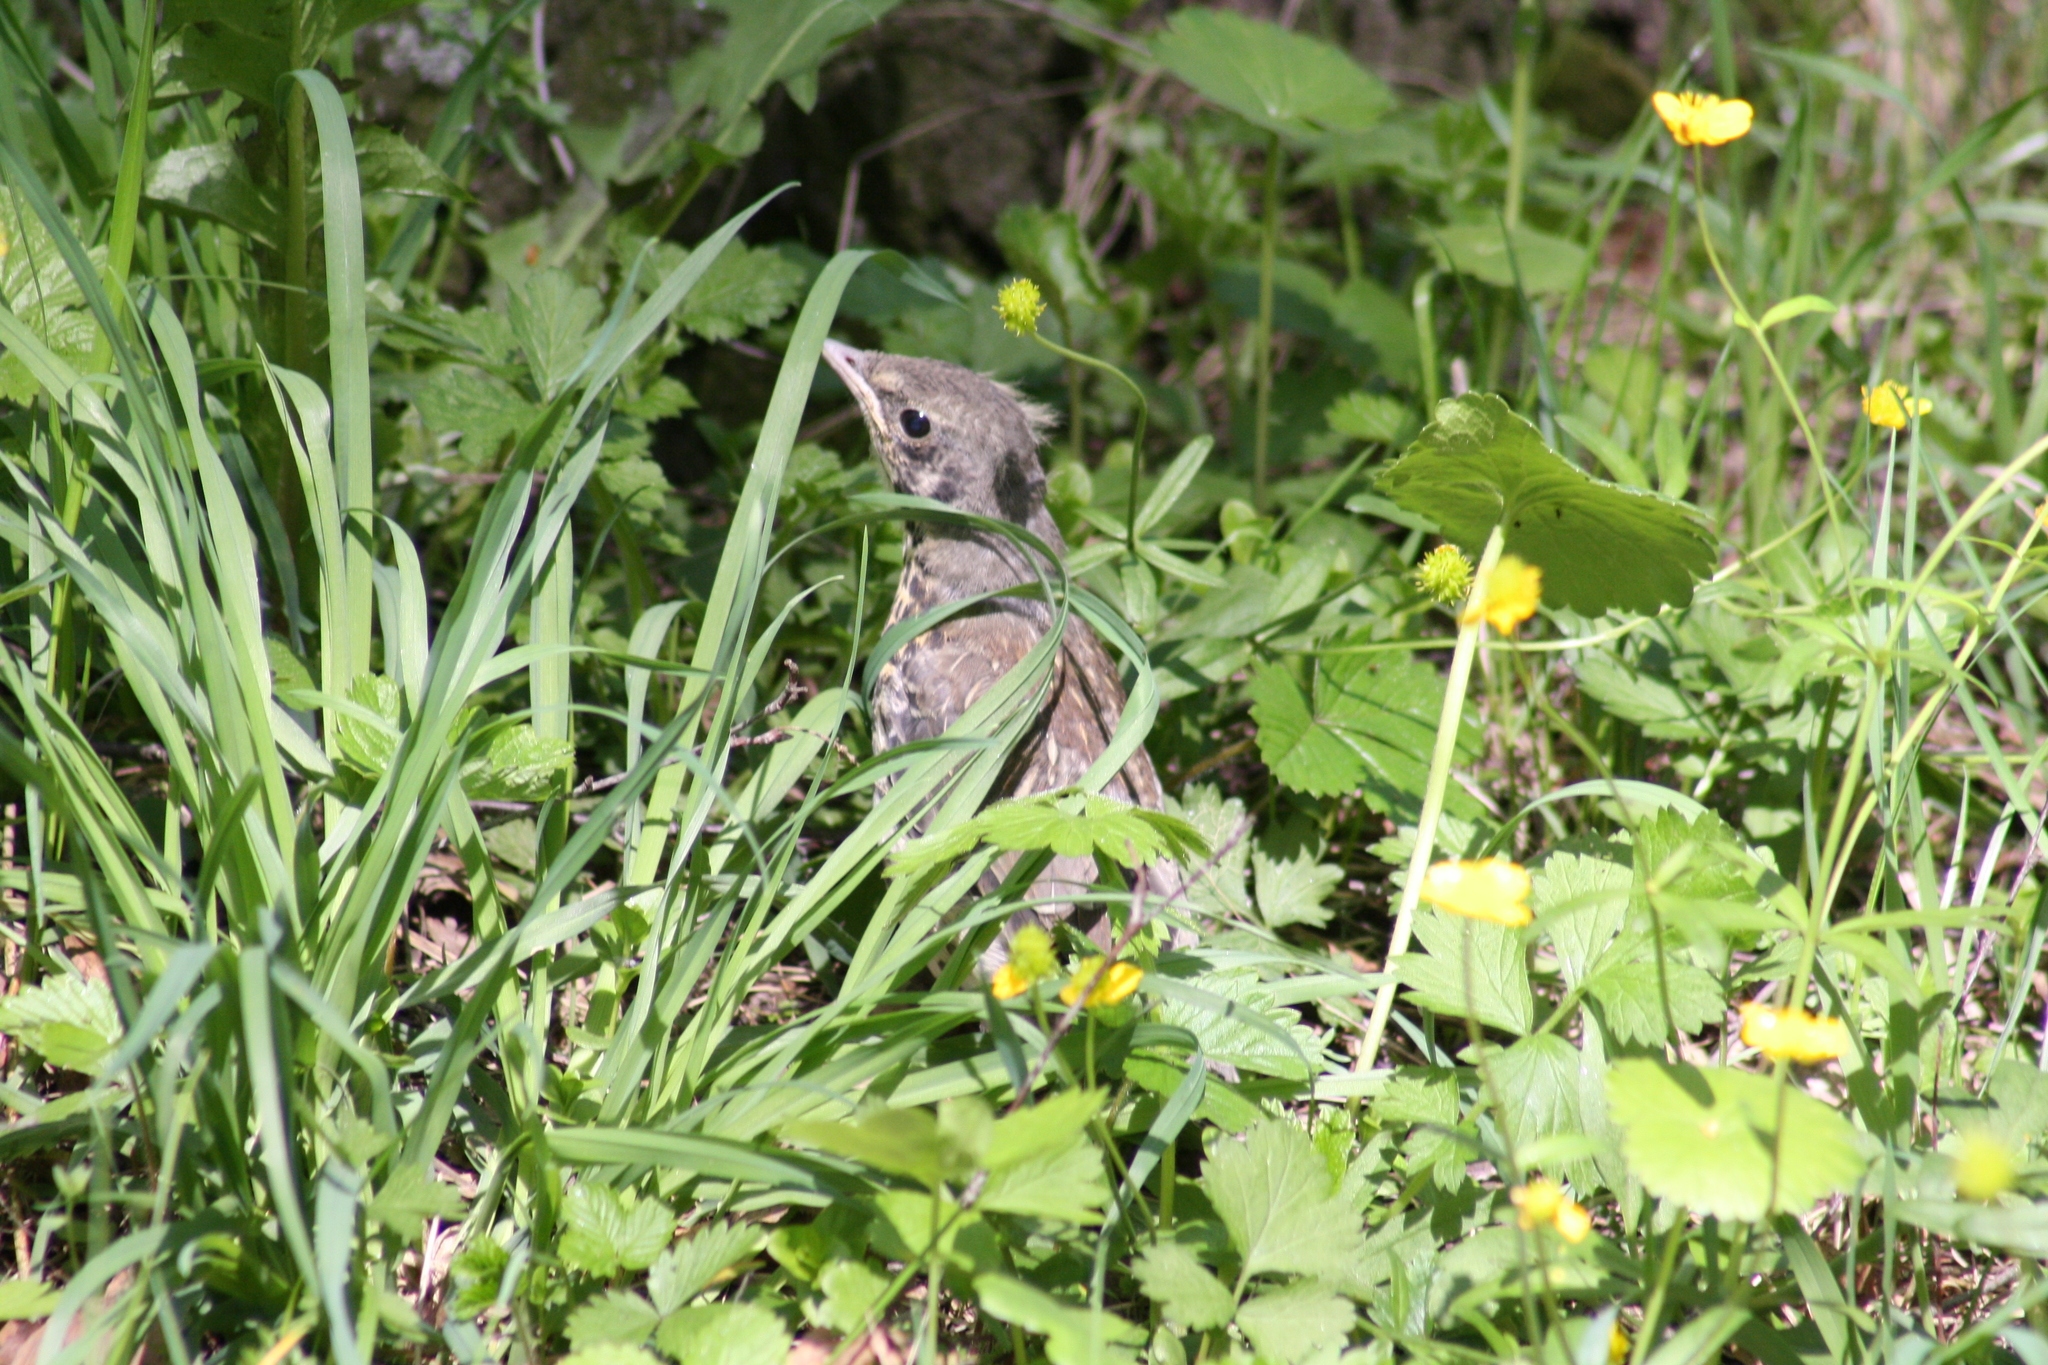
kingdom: Animalia
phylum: Chordata
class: Aves
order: Passeriformes
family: Turdidae
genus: Turdus
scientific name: Turdus pilaris
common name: Fieldfare
